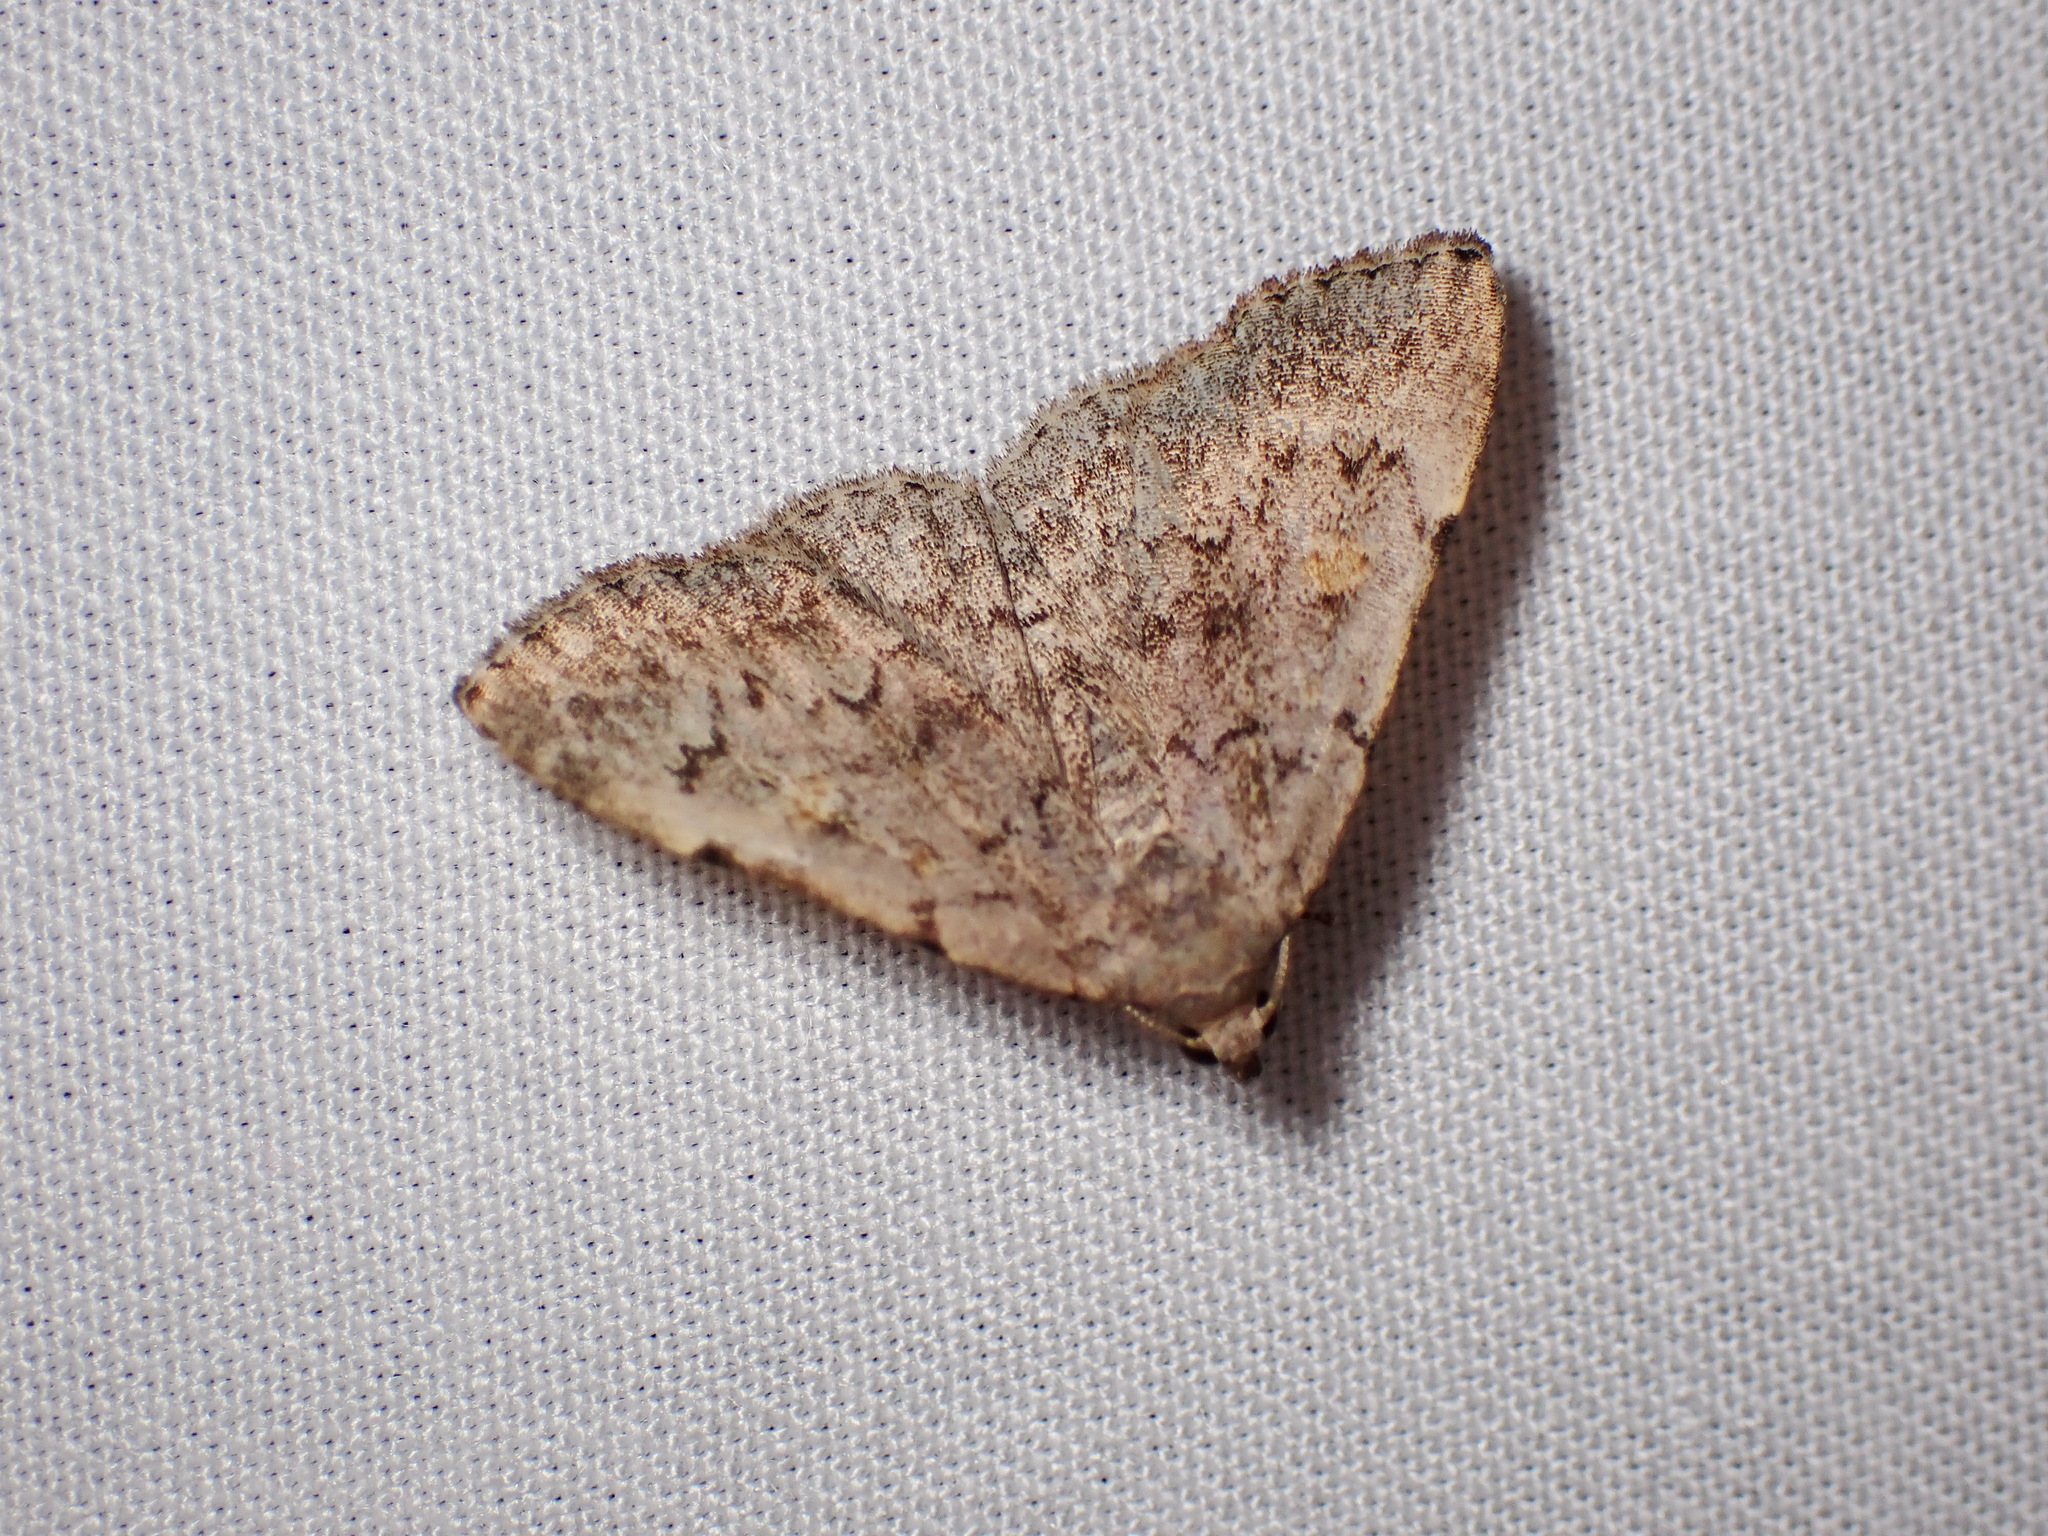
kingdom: Animalia
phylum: Arthropoda
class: Insecta
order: Lepidoptera
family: Erebidae
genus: Idia
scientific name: Idia aemula
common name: Common idia moth
